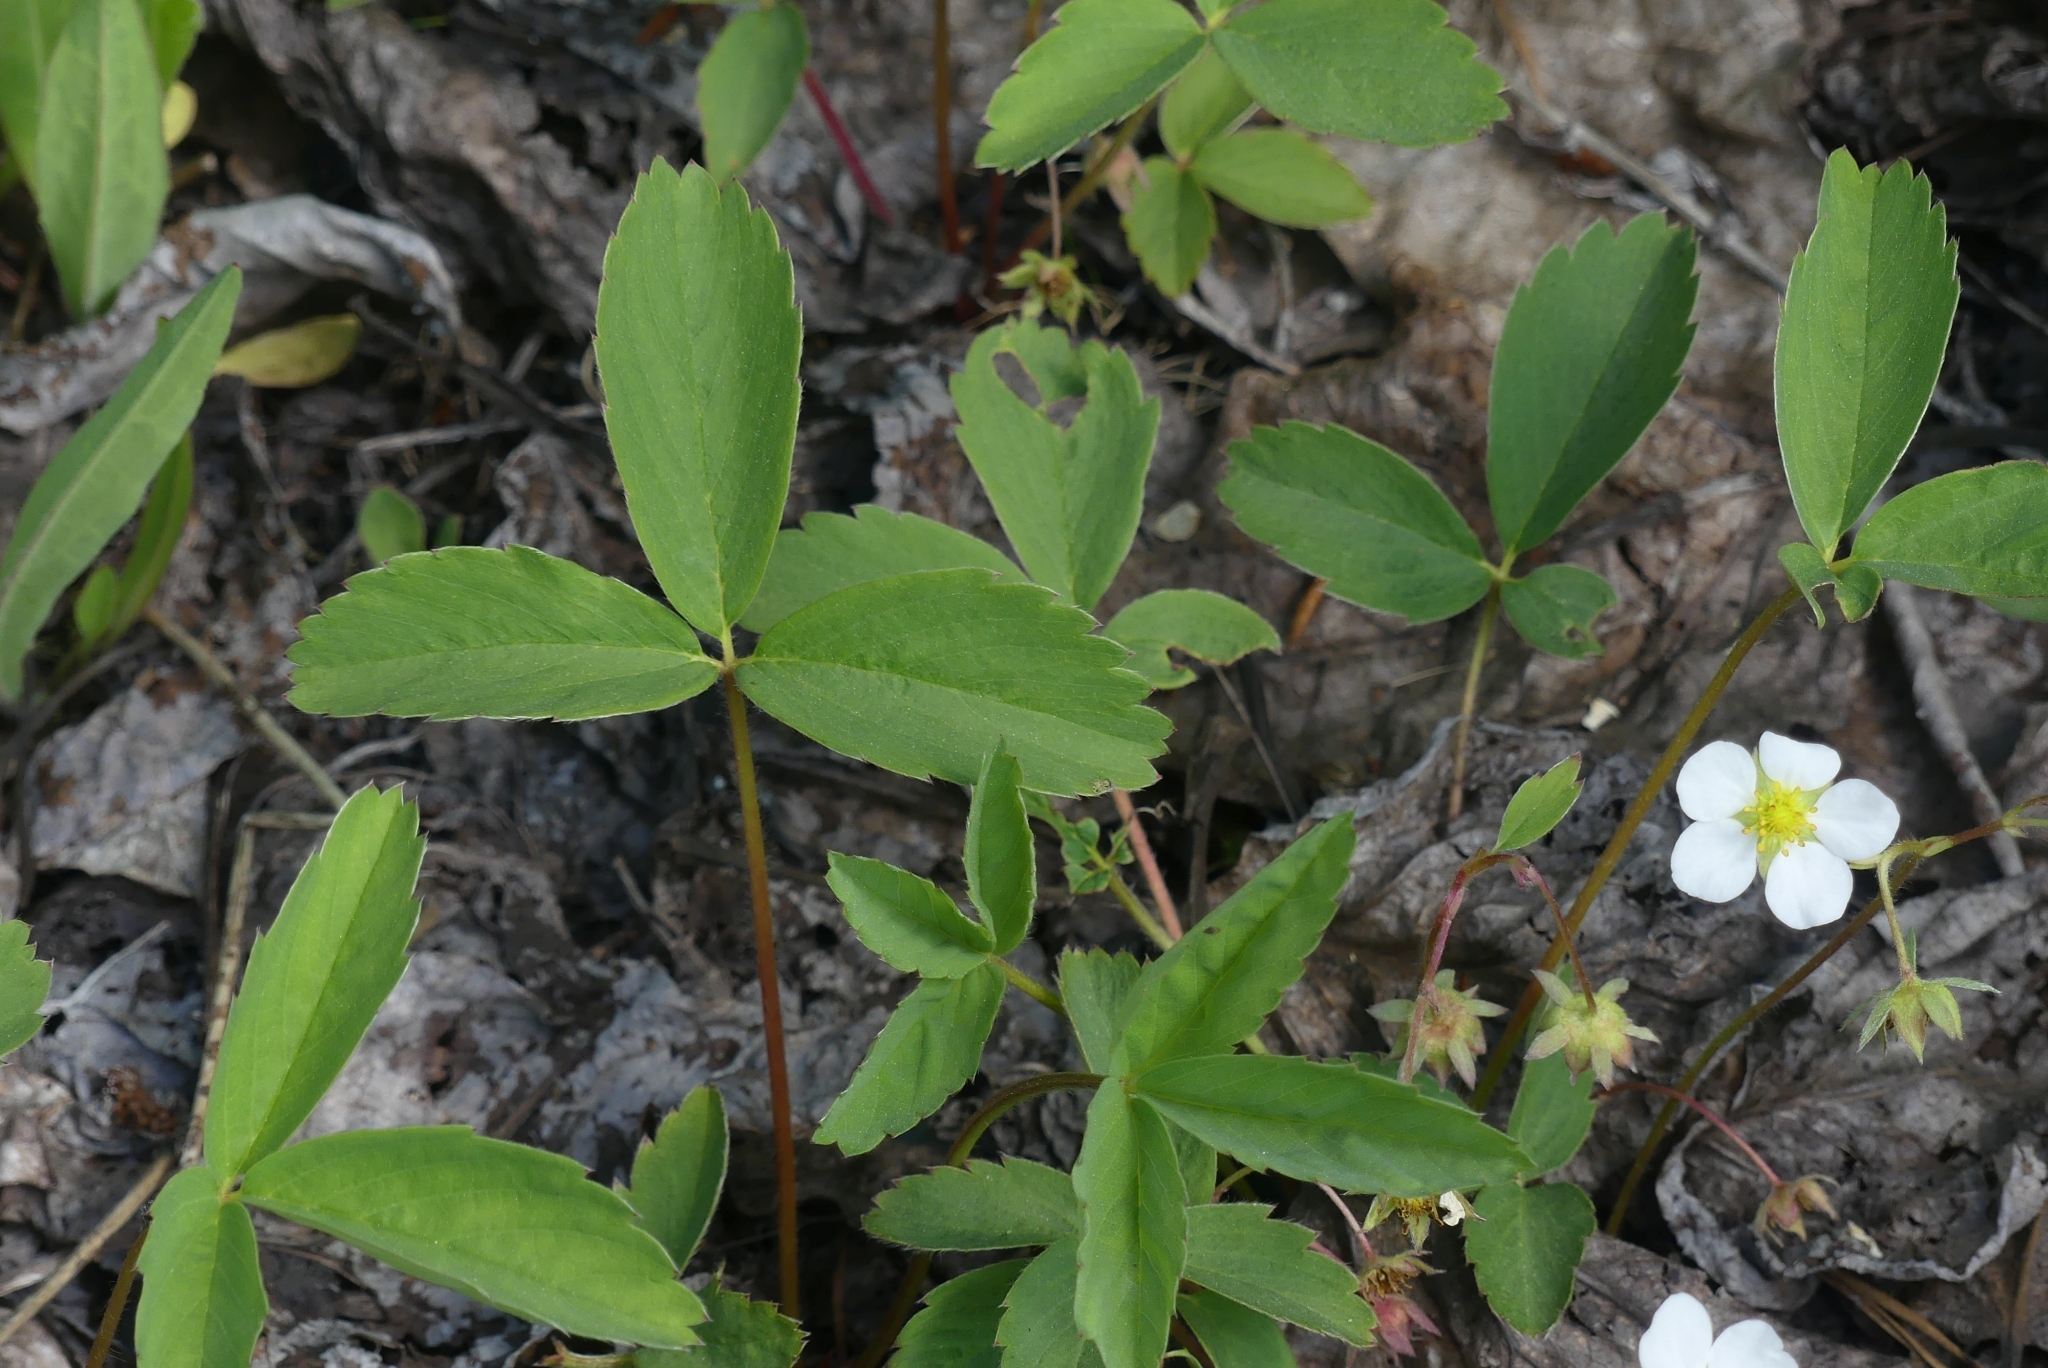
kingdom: Plantae
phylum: Tracheophyta
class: Magnoliopsida
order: Rosales
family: Rosaceae
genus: Fragaria
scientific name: Fragaria virginiana
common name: Thickleaved wild strawberry
